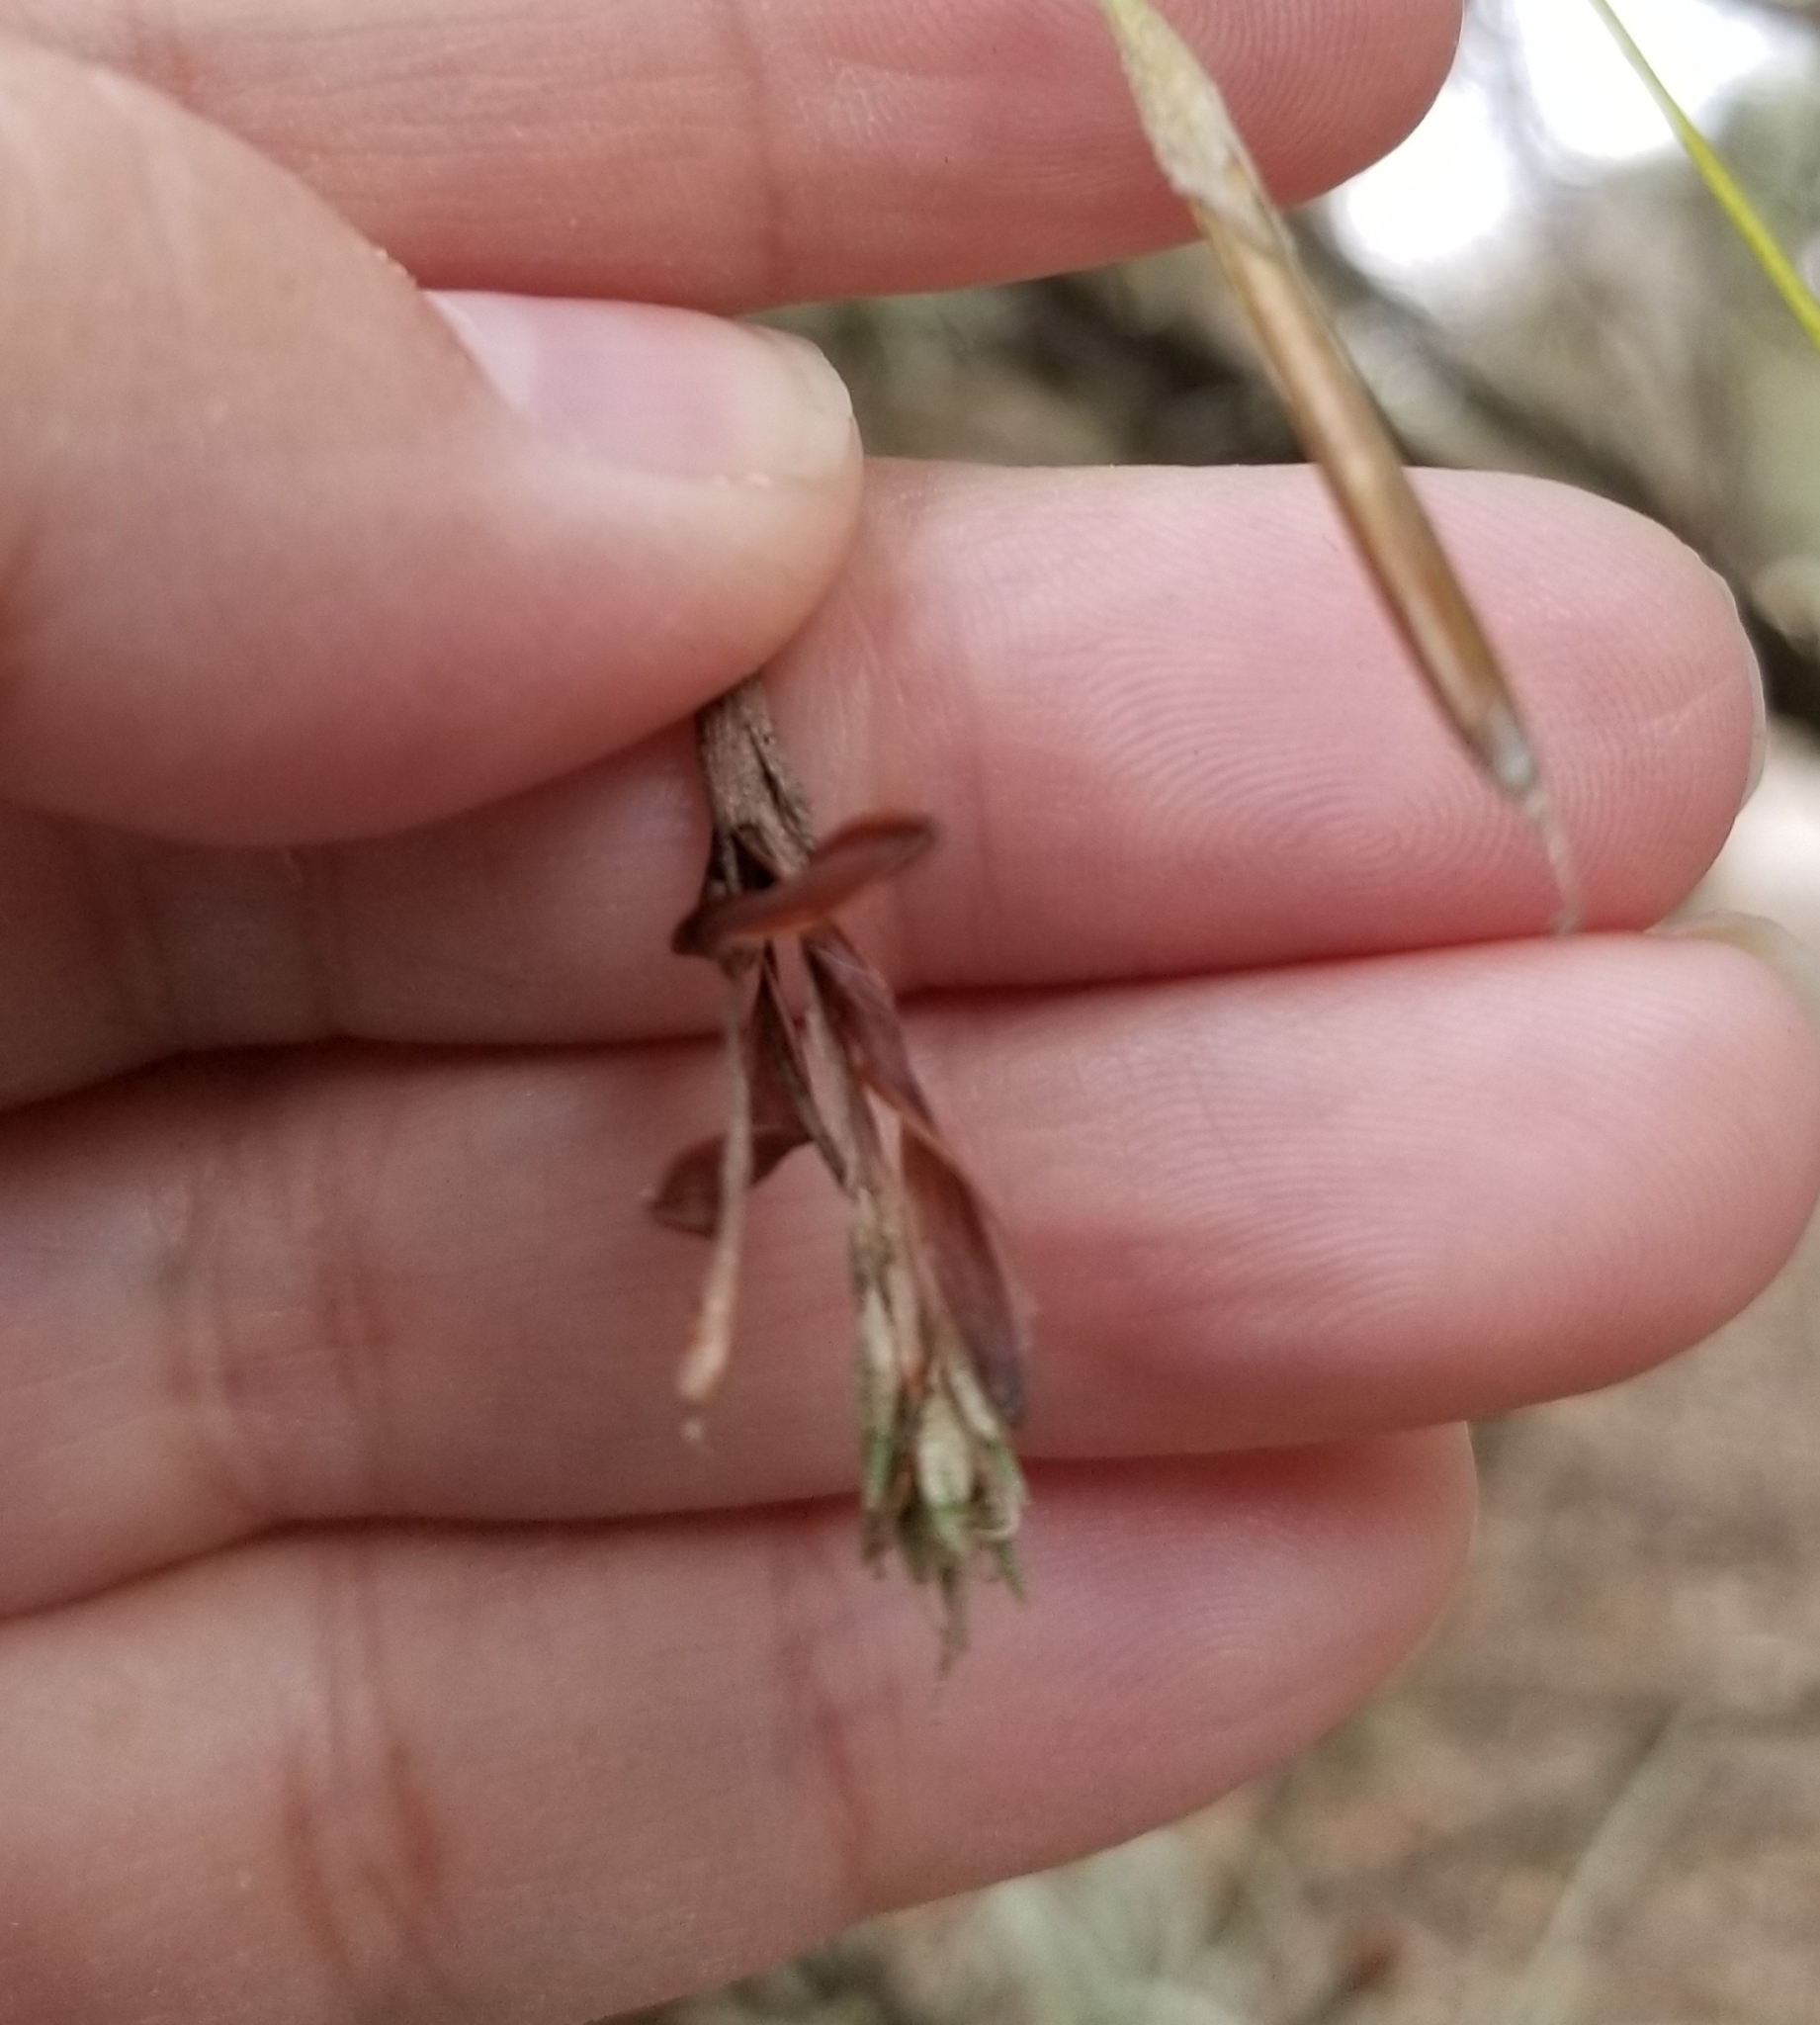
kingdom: Plantae
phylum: Tracheophyta
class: Liliopsida
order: Poales
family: Bromeliaceae
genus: Tillandsia
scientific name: Tillandsia recurvata
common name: Small ballmoss
